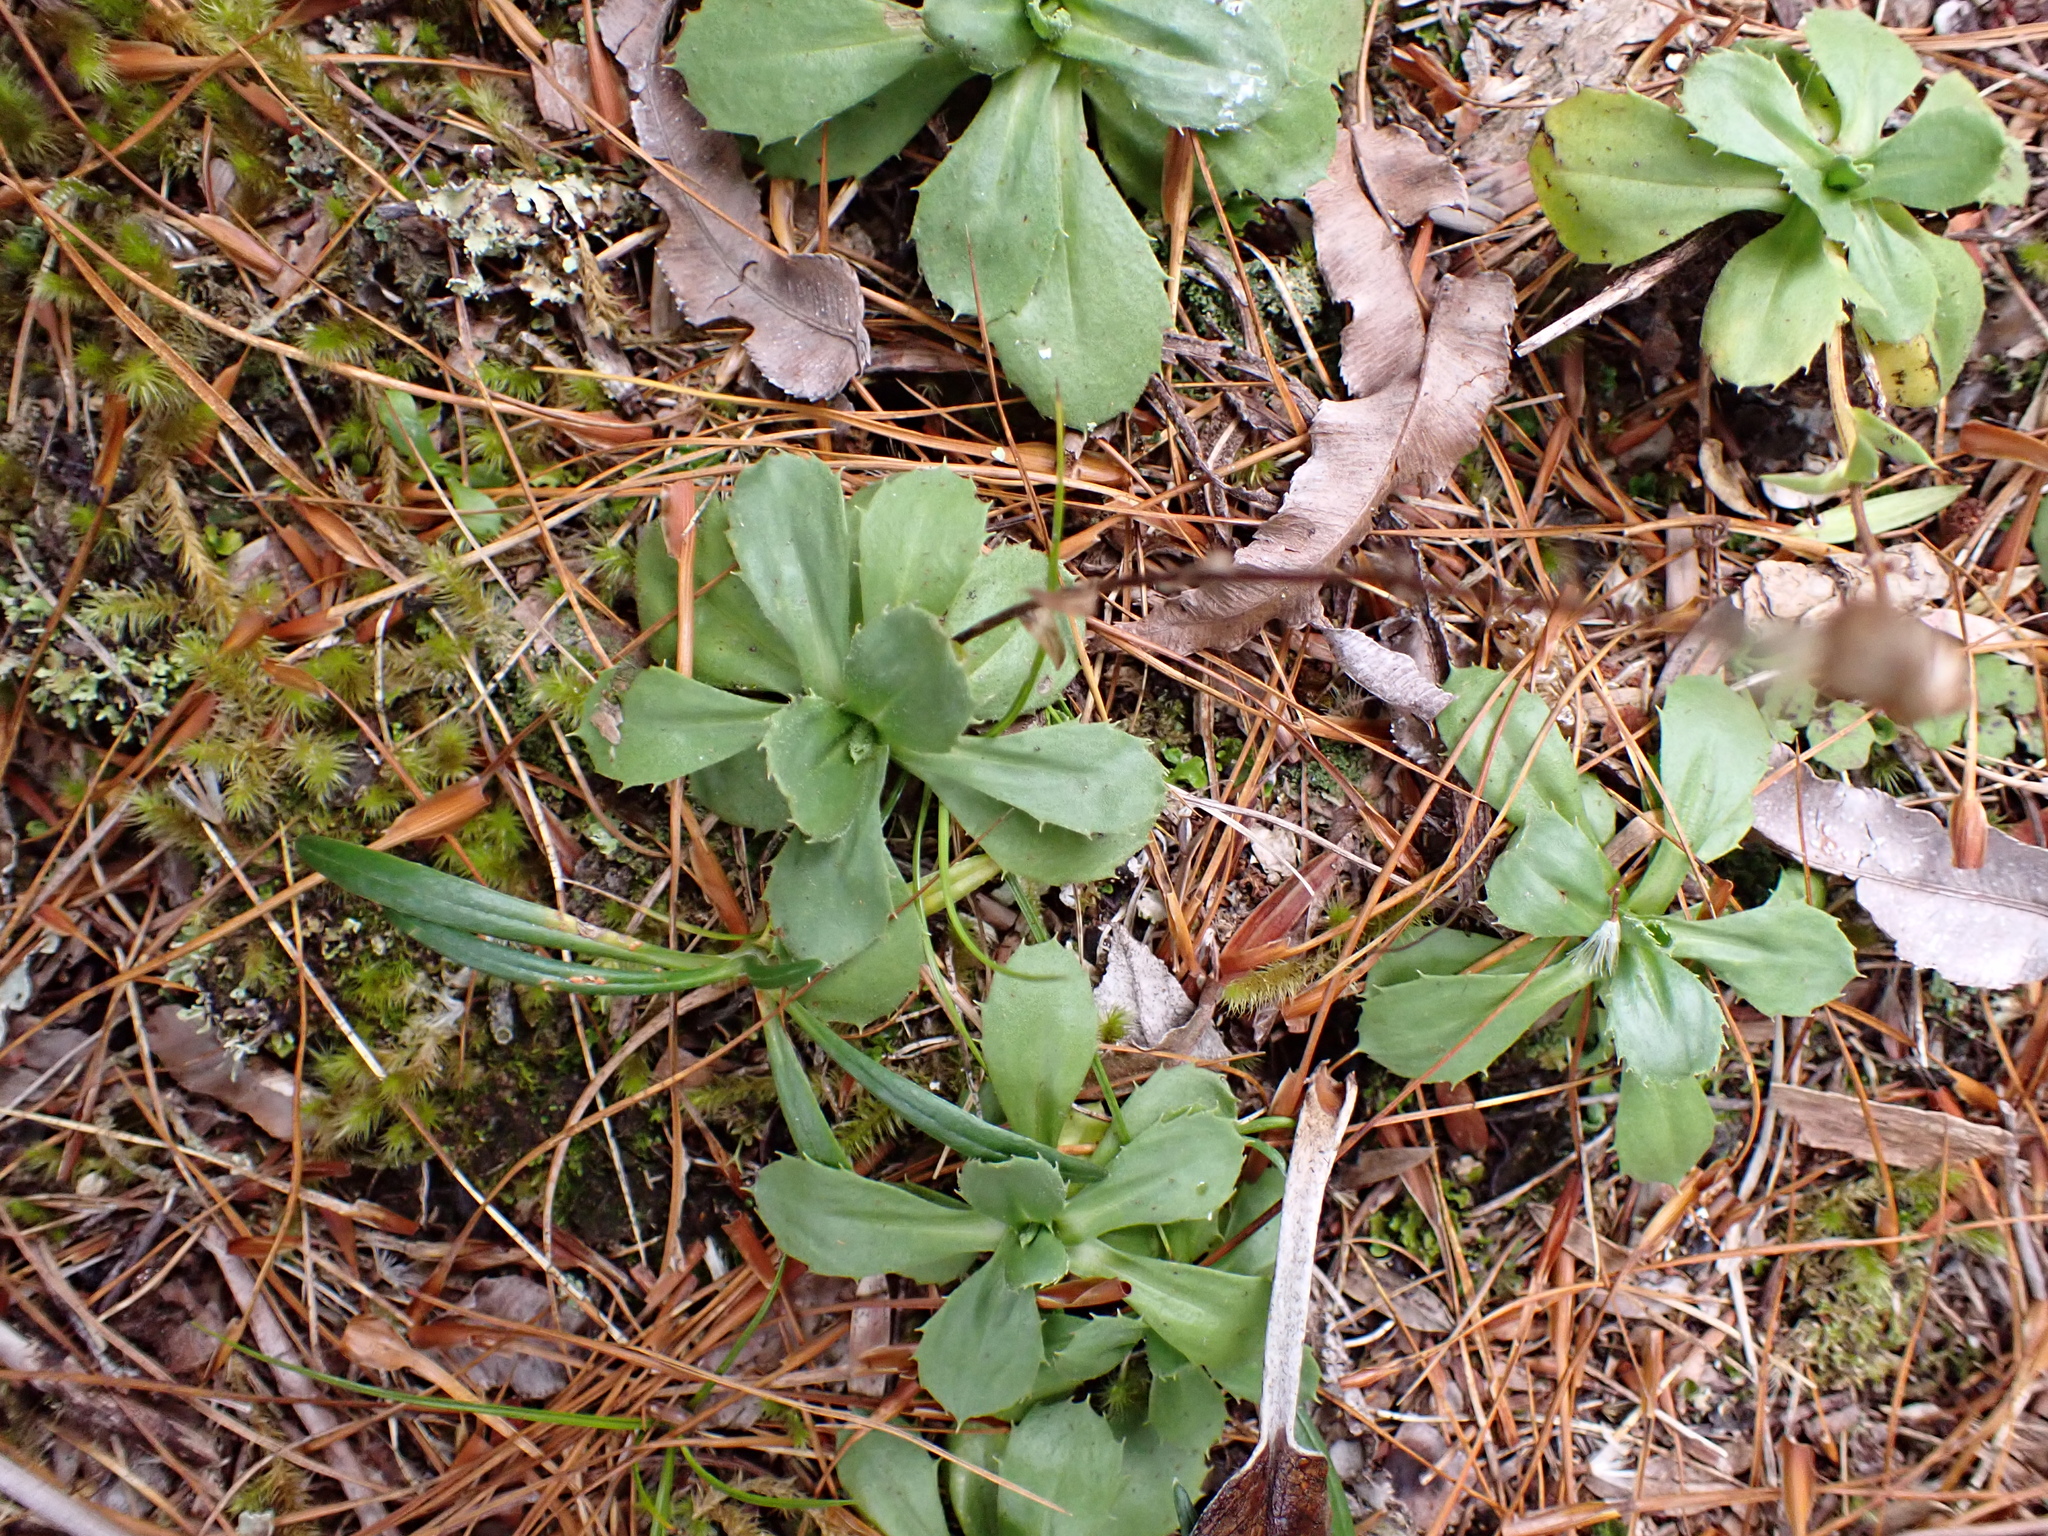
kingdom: Plantae
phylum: Tracheophyta
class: Magnoliopsida
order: Asterales
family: Asteraceae
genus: Celmisia
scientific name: Celmisia glandulosa
